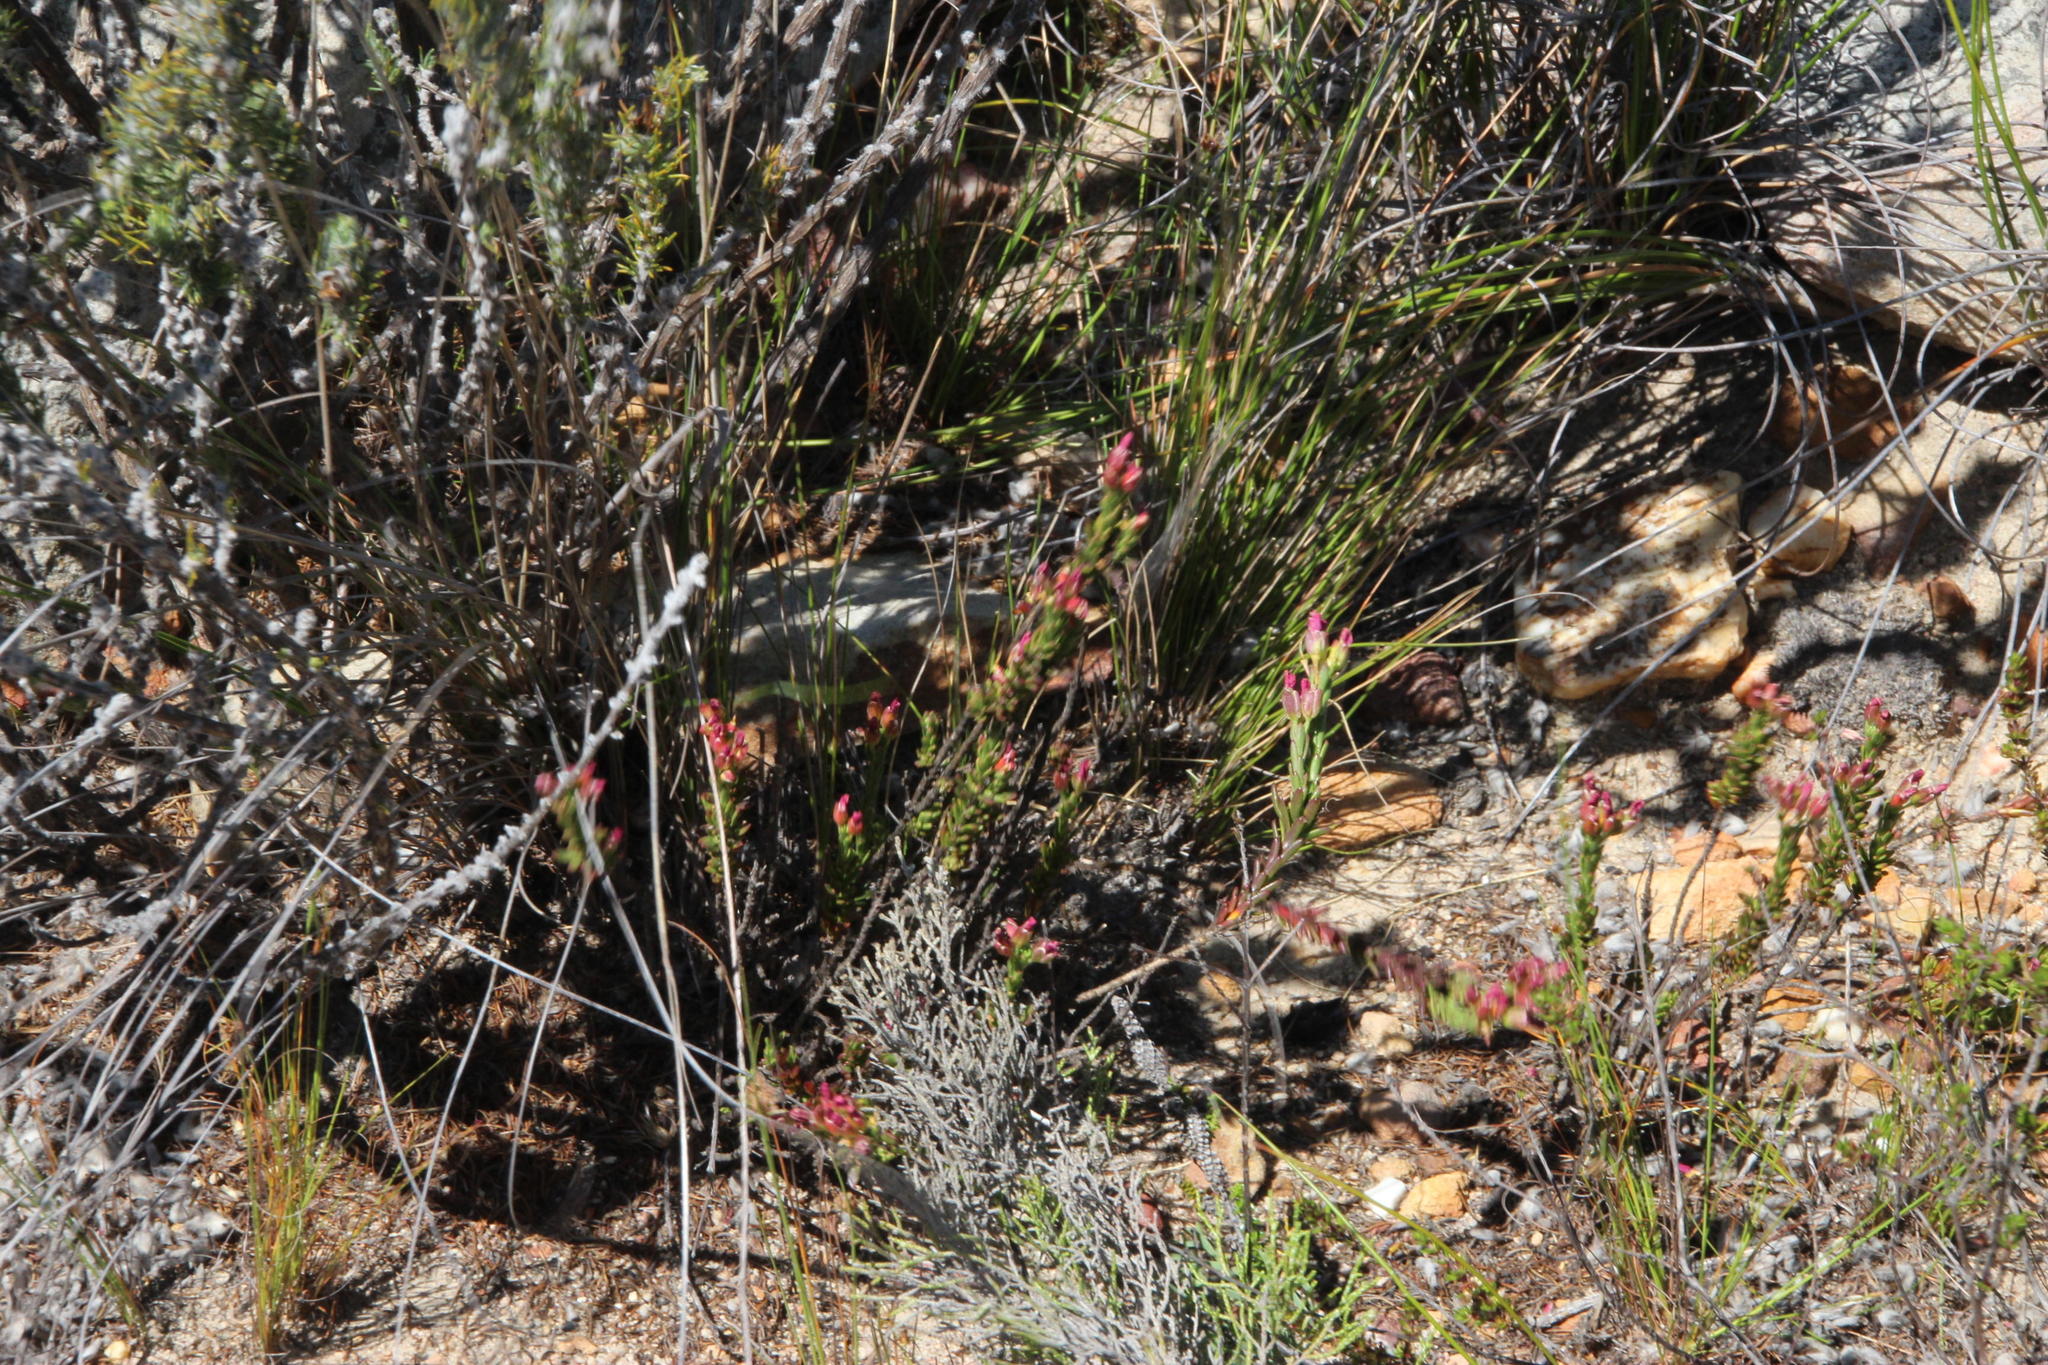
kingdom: Plantae
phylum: Tracheophyta
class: Magnoliopsida
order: Brassicales
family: Brassicaceae
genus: Heliophila
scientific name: Heliophila xylopoda
